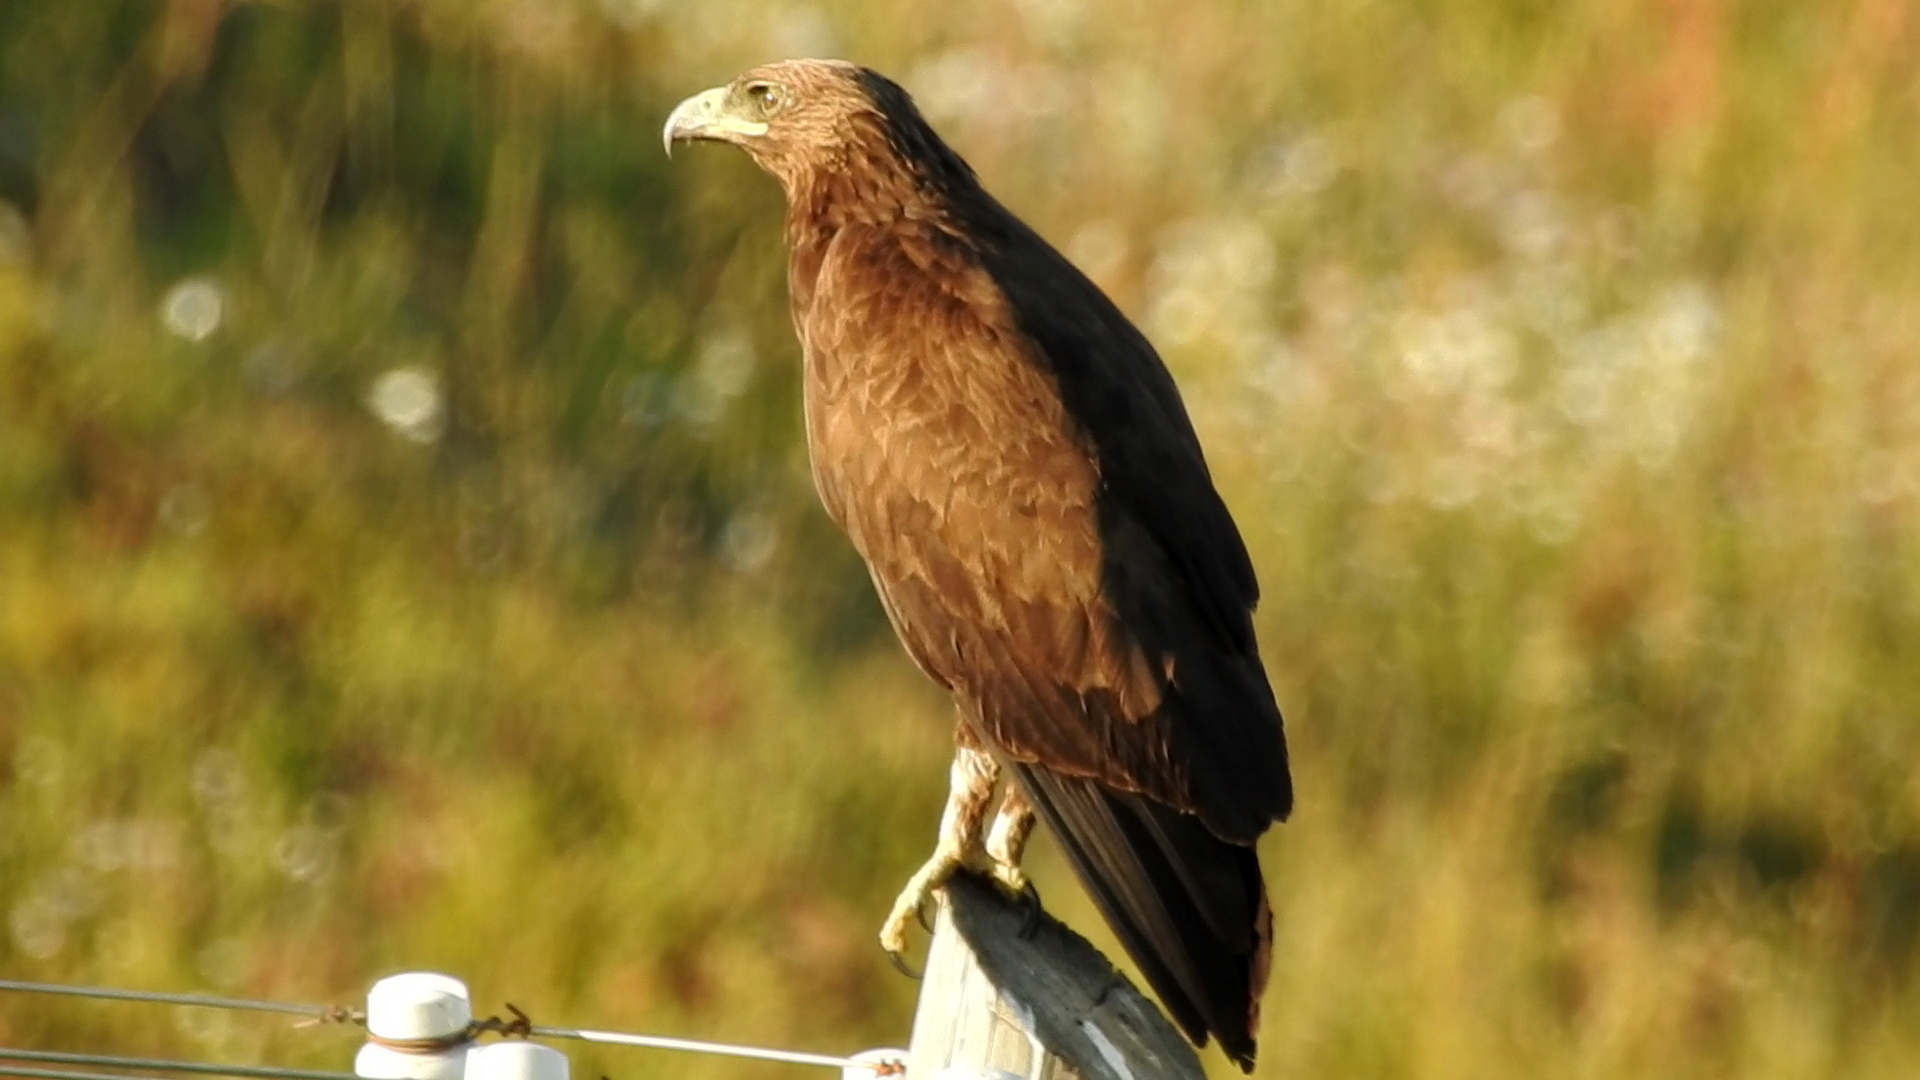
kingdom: Animalia
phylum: Chordata
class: Aves
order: Accipitriformes
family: Accipitridae
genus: Aquila
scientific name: Aquila clanga
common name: Greater spotted eagle
